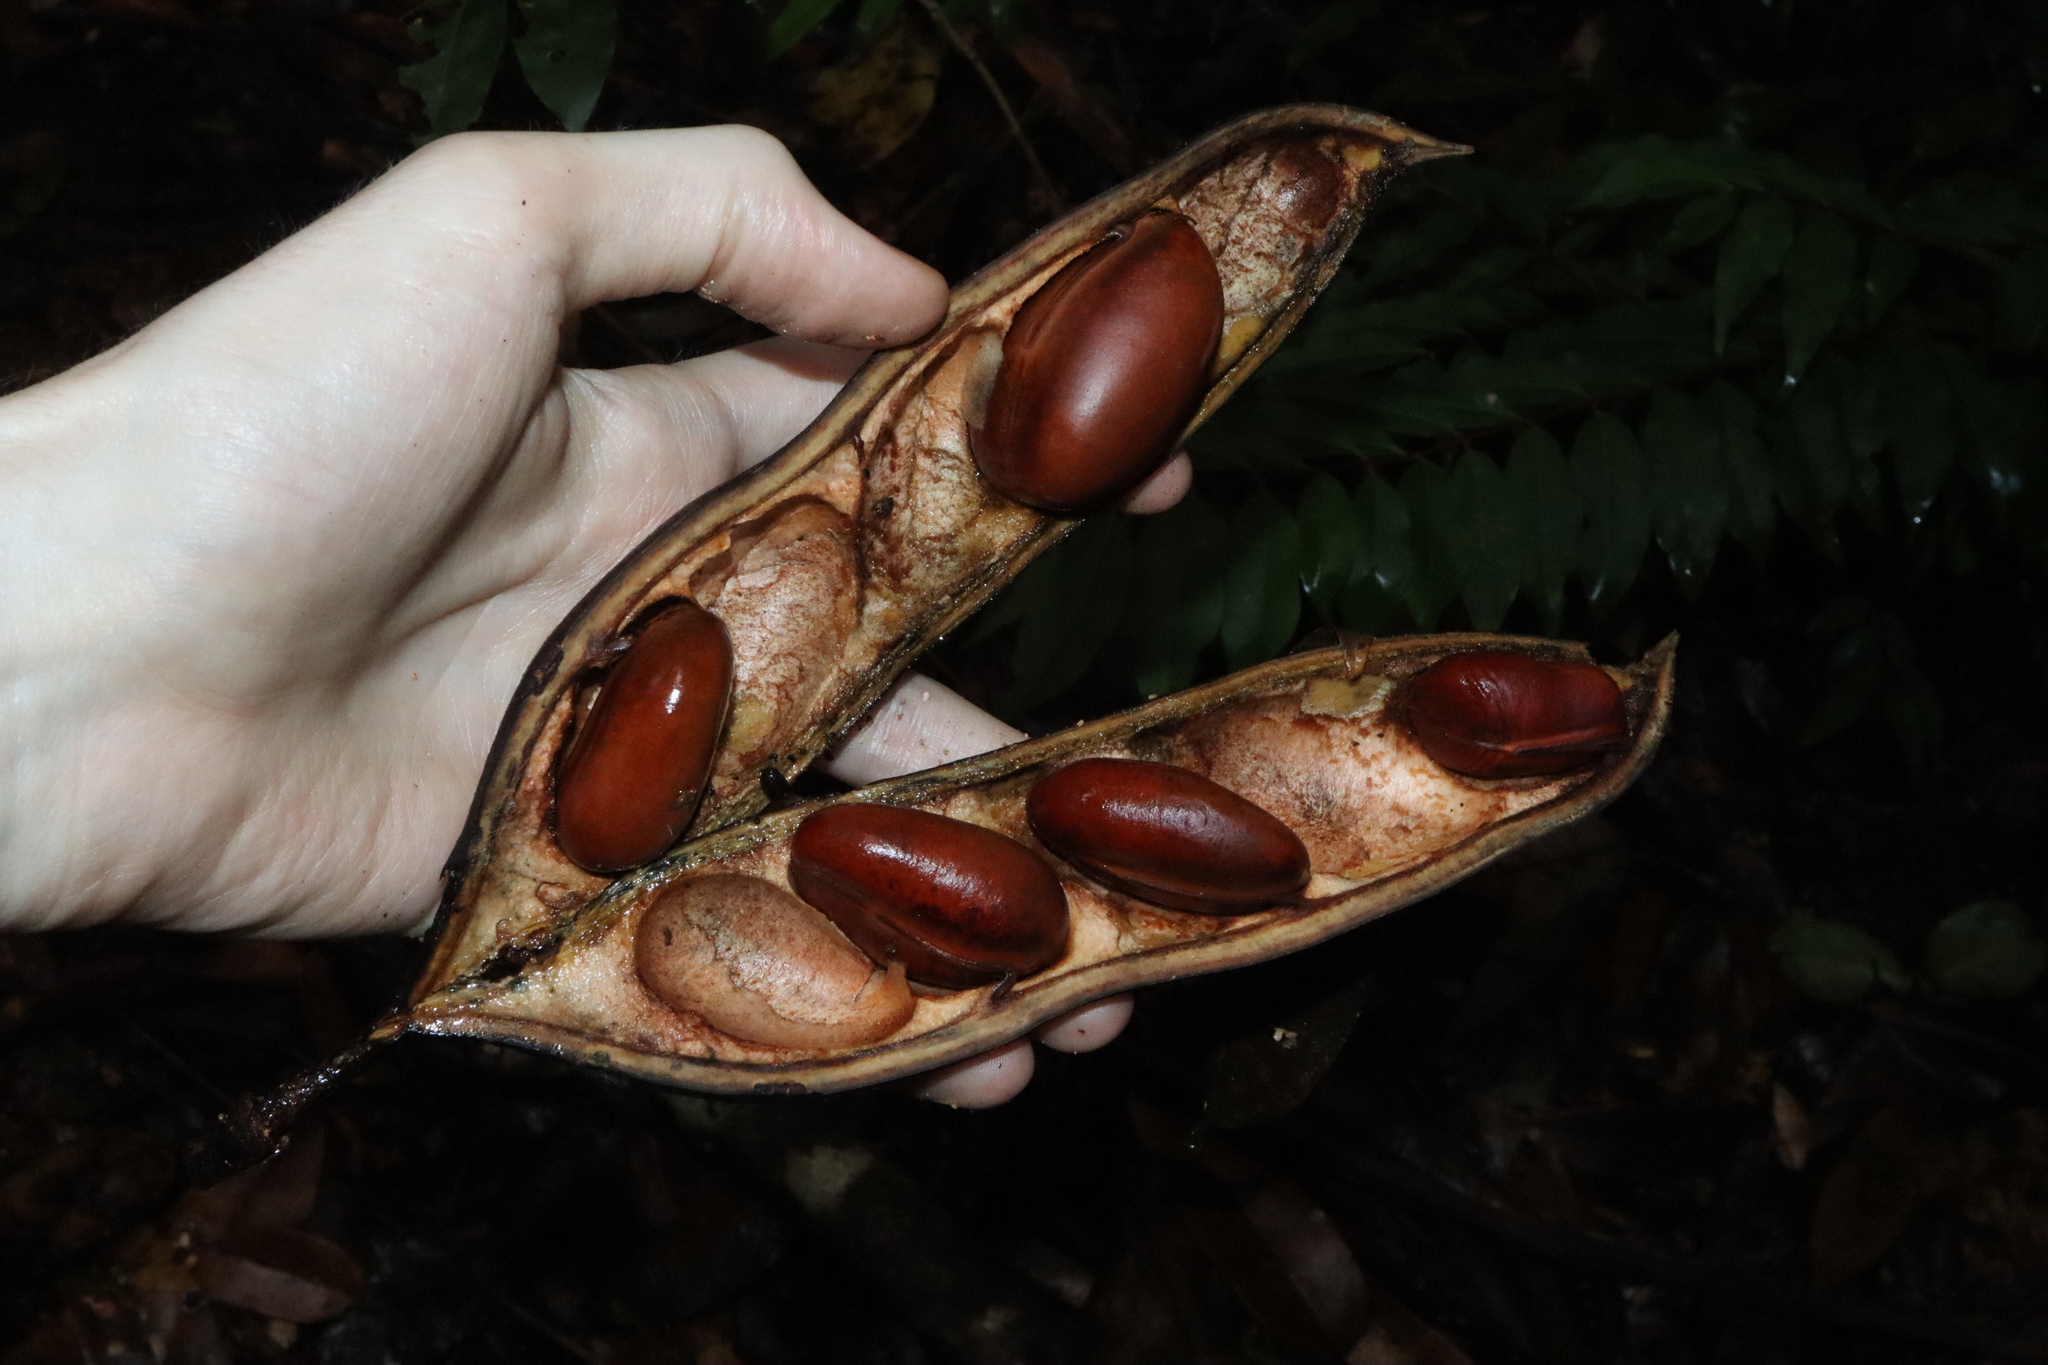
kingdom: Plantae
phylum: Tracheophyta
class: Magnoliopsida
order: Fabales
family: Fabaceae
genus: Castanospermum
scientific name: Castanospermum australe
